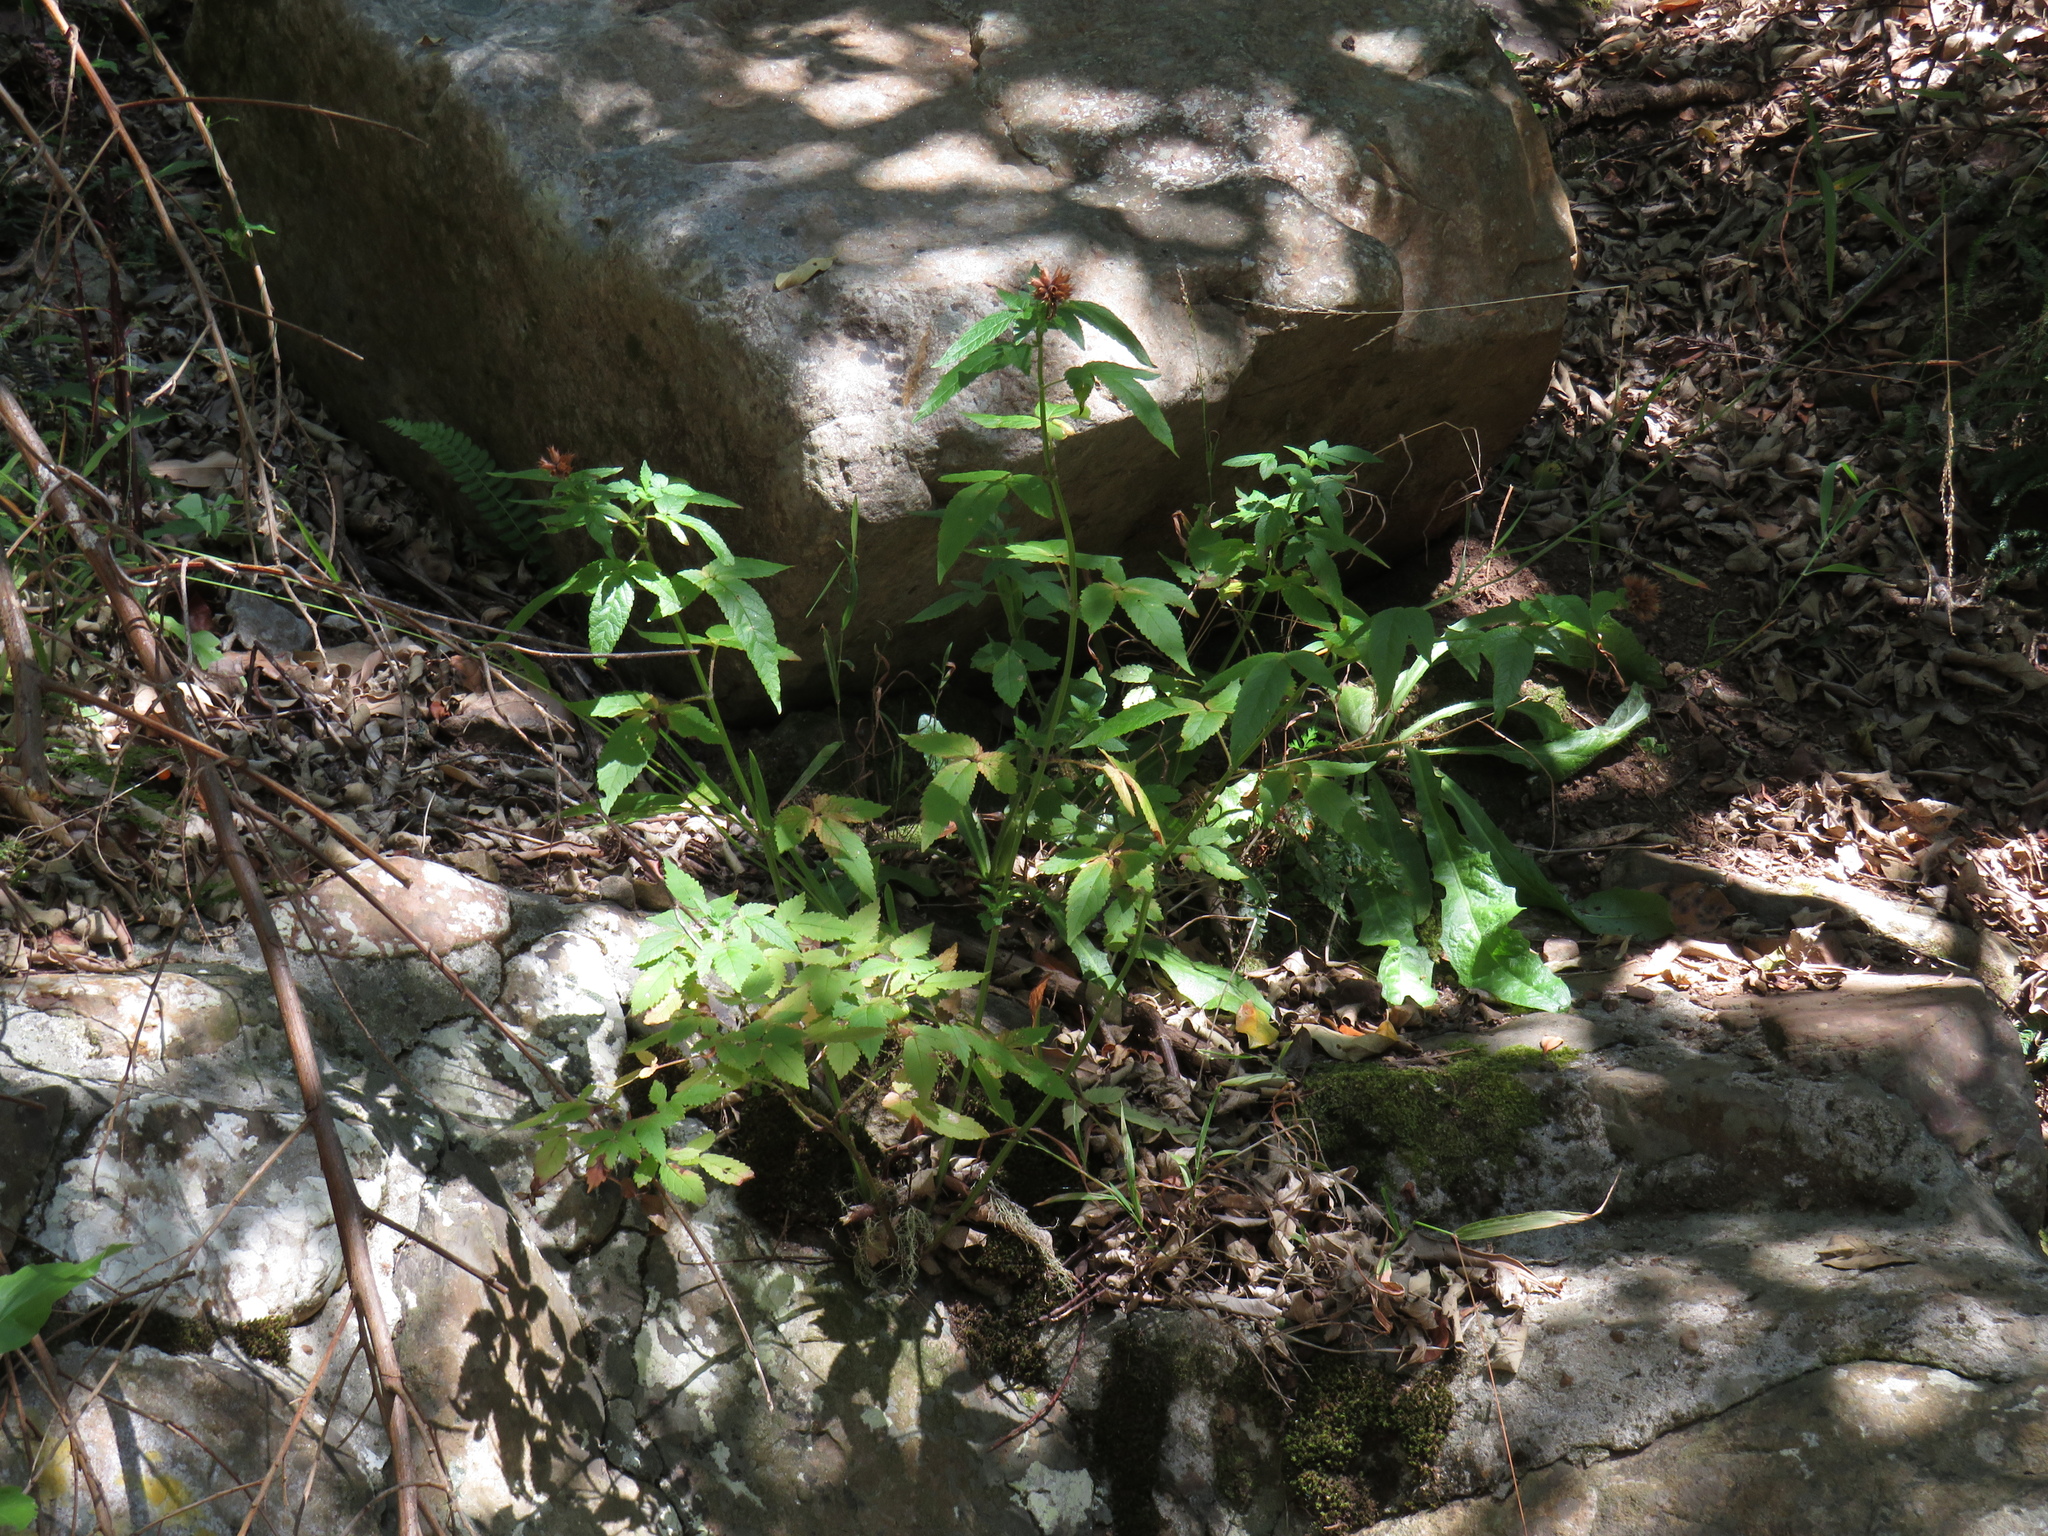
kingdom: Plantae
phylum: Tracheophyta
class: Magnoliopsida
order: Lamiales
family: Lamiaceae
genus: Cedronella
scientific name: Cedronella canariensis
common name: Canary islands balm
